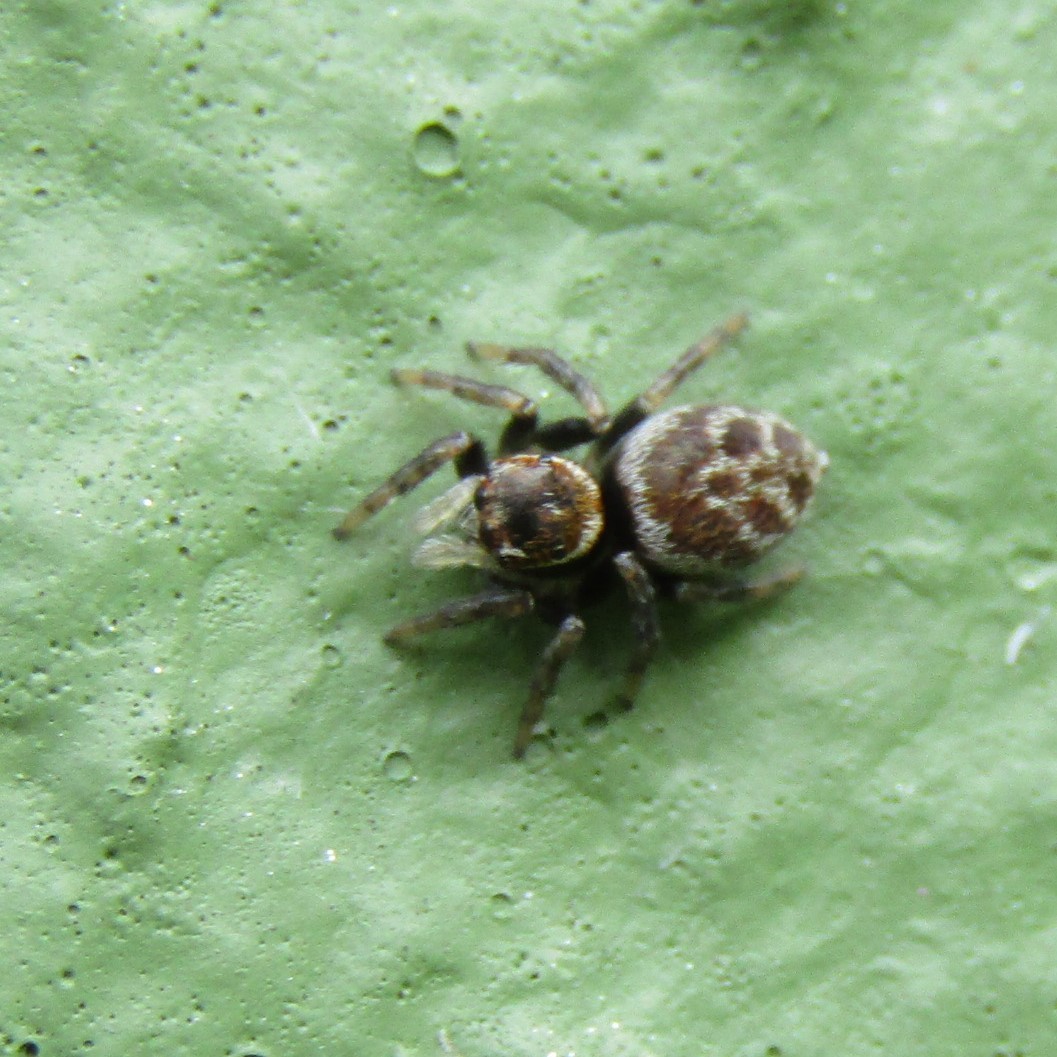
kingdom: Animalia
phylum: Arthropoda
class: Arachnida
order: Araneae
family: Salticidae
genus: Maratus
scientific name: Maratus griseus
